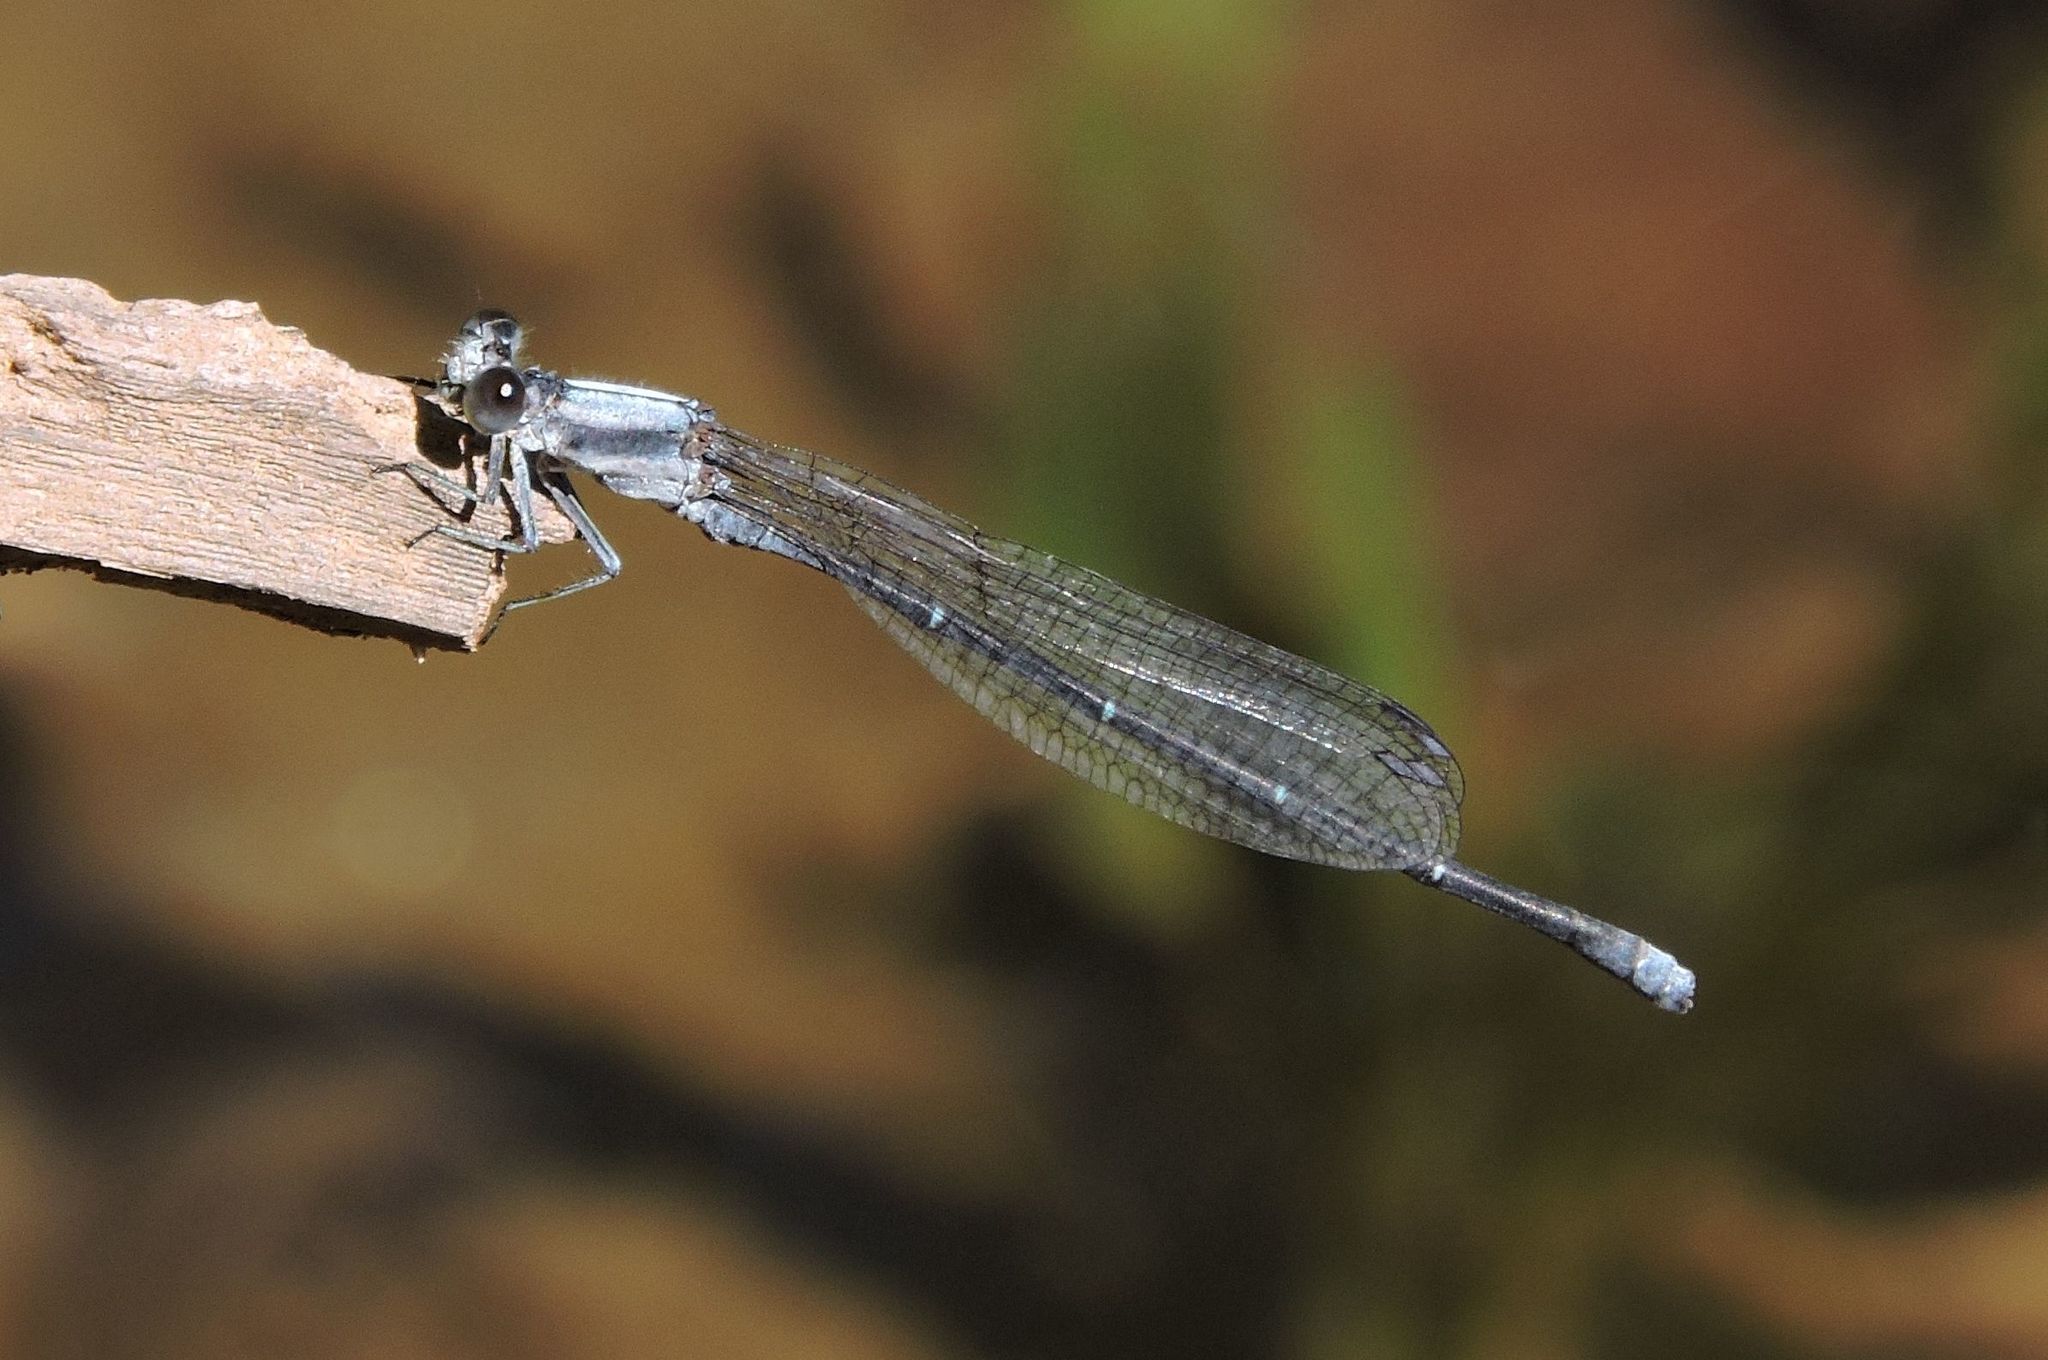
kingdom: Animalia
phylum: Arthropoda
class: Insecta
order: Odonata
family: Coenagrionidae
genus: Argia
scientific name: Argia moesta
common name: Powdered dancer
